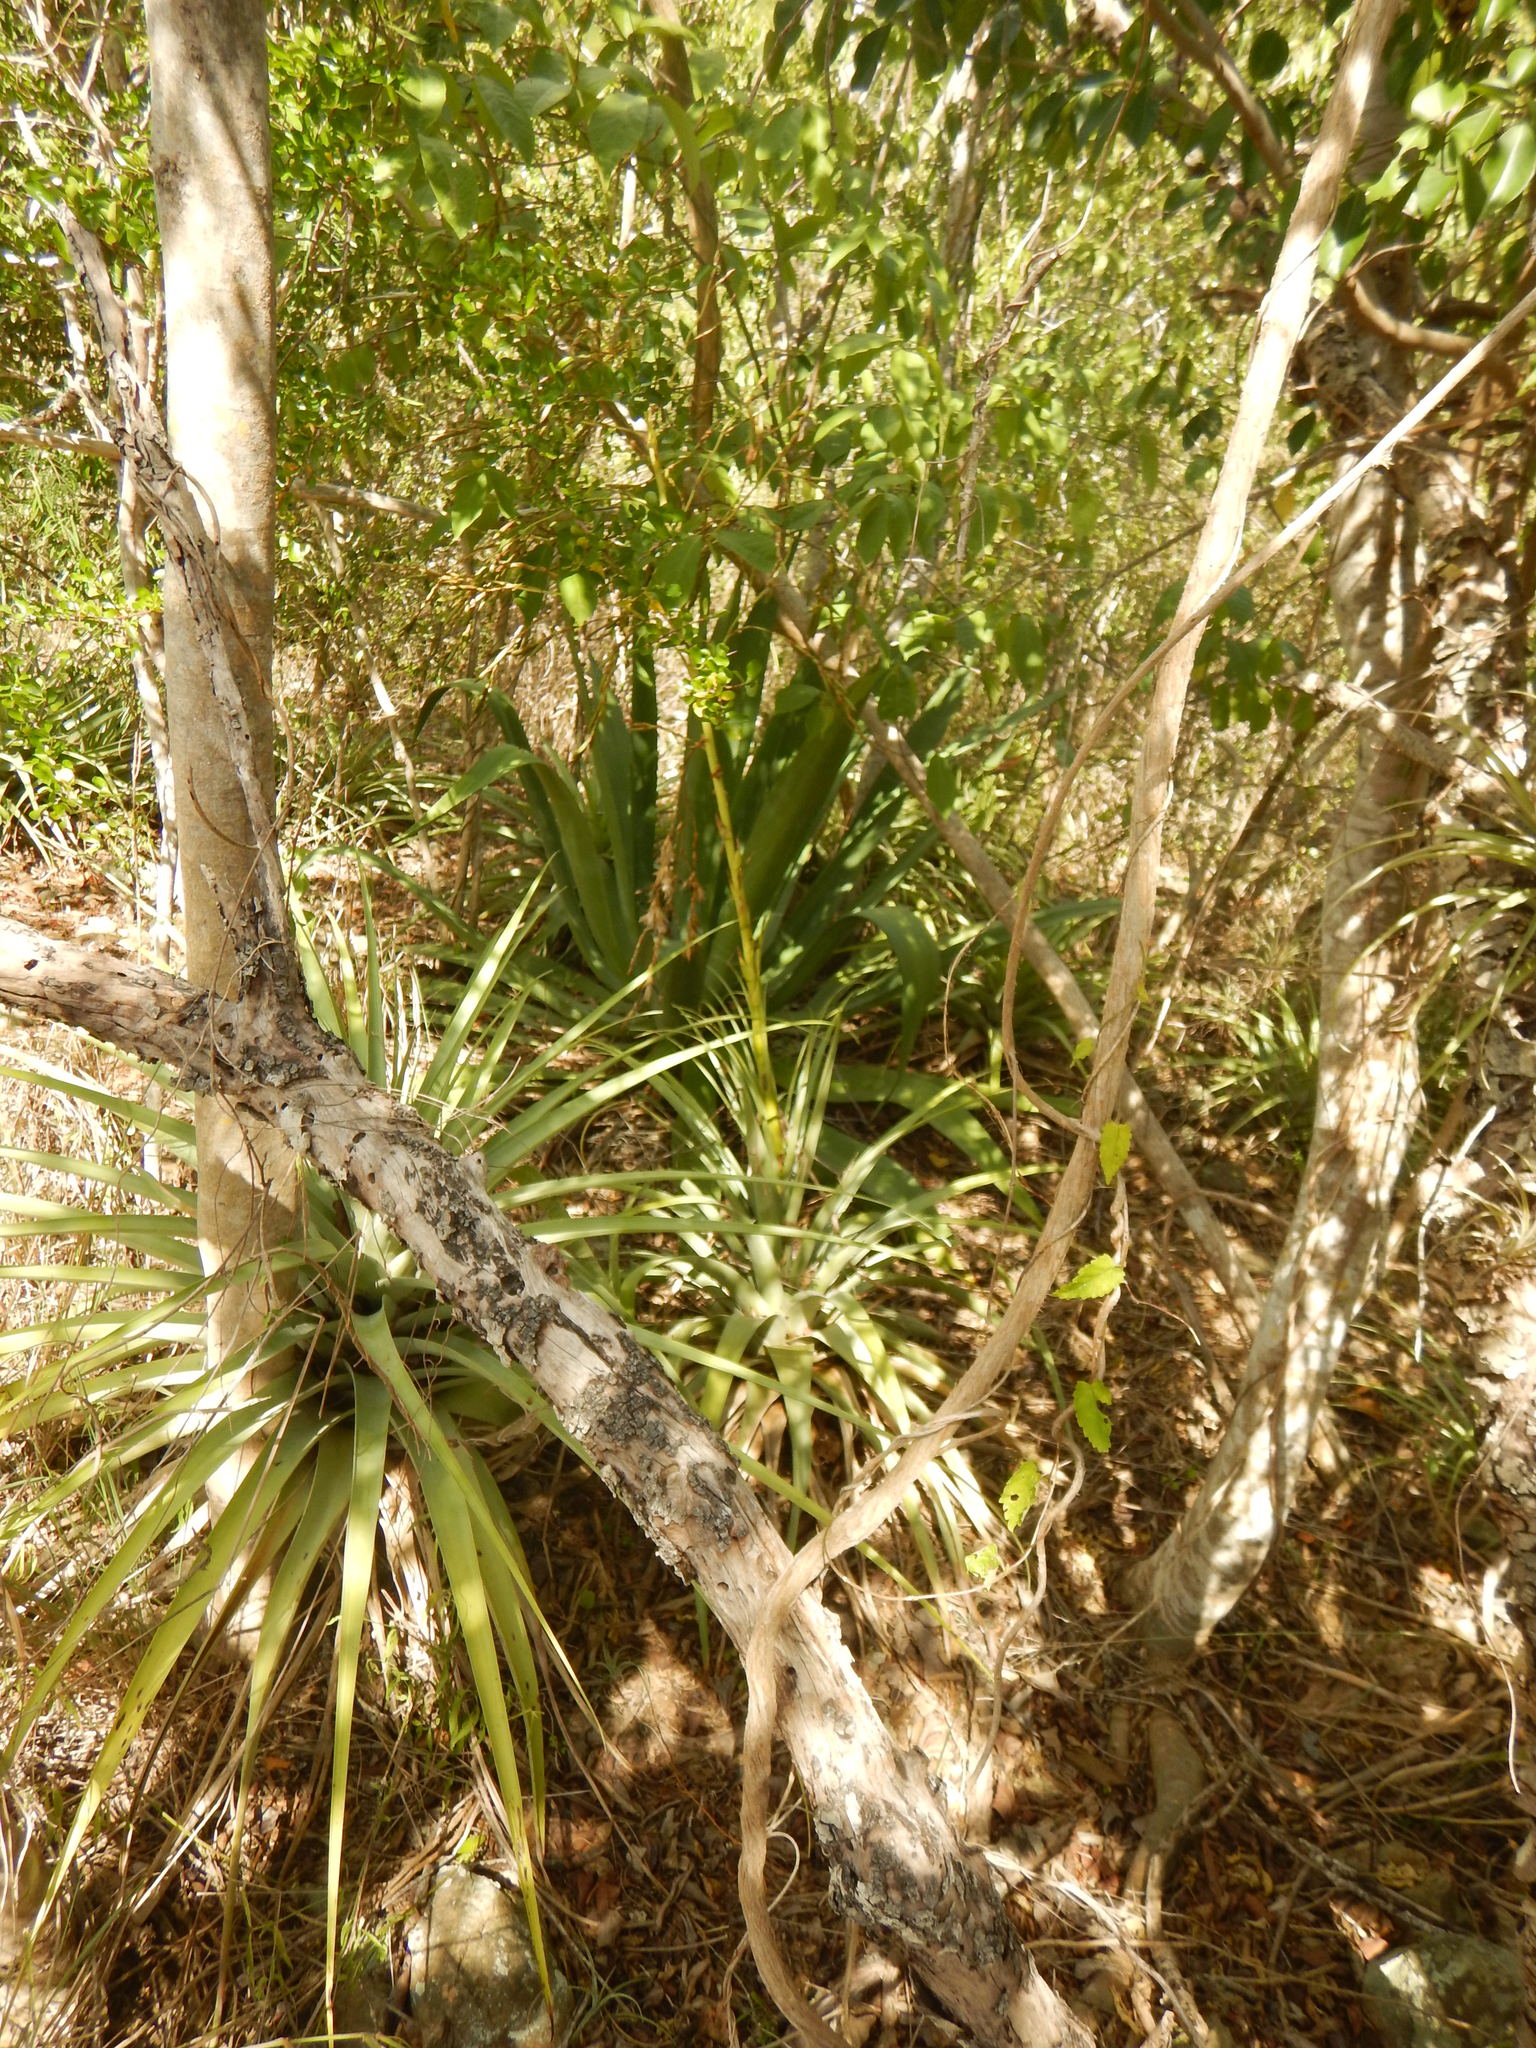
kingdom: Plantae
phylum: Tracheophyta
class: Liliopsida
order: Poales
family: Bromeliaceae
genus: Tillandsia
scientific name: Tillandsia utriculata
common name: Wild pine
